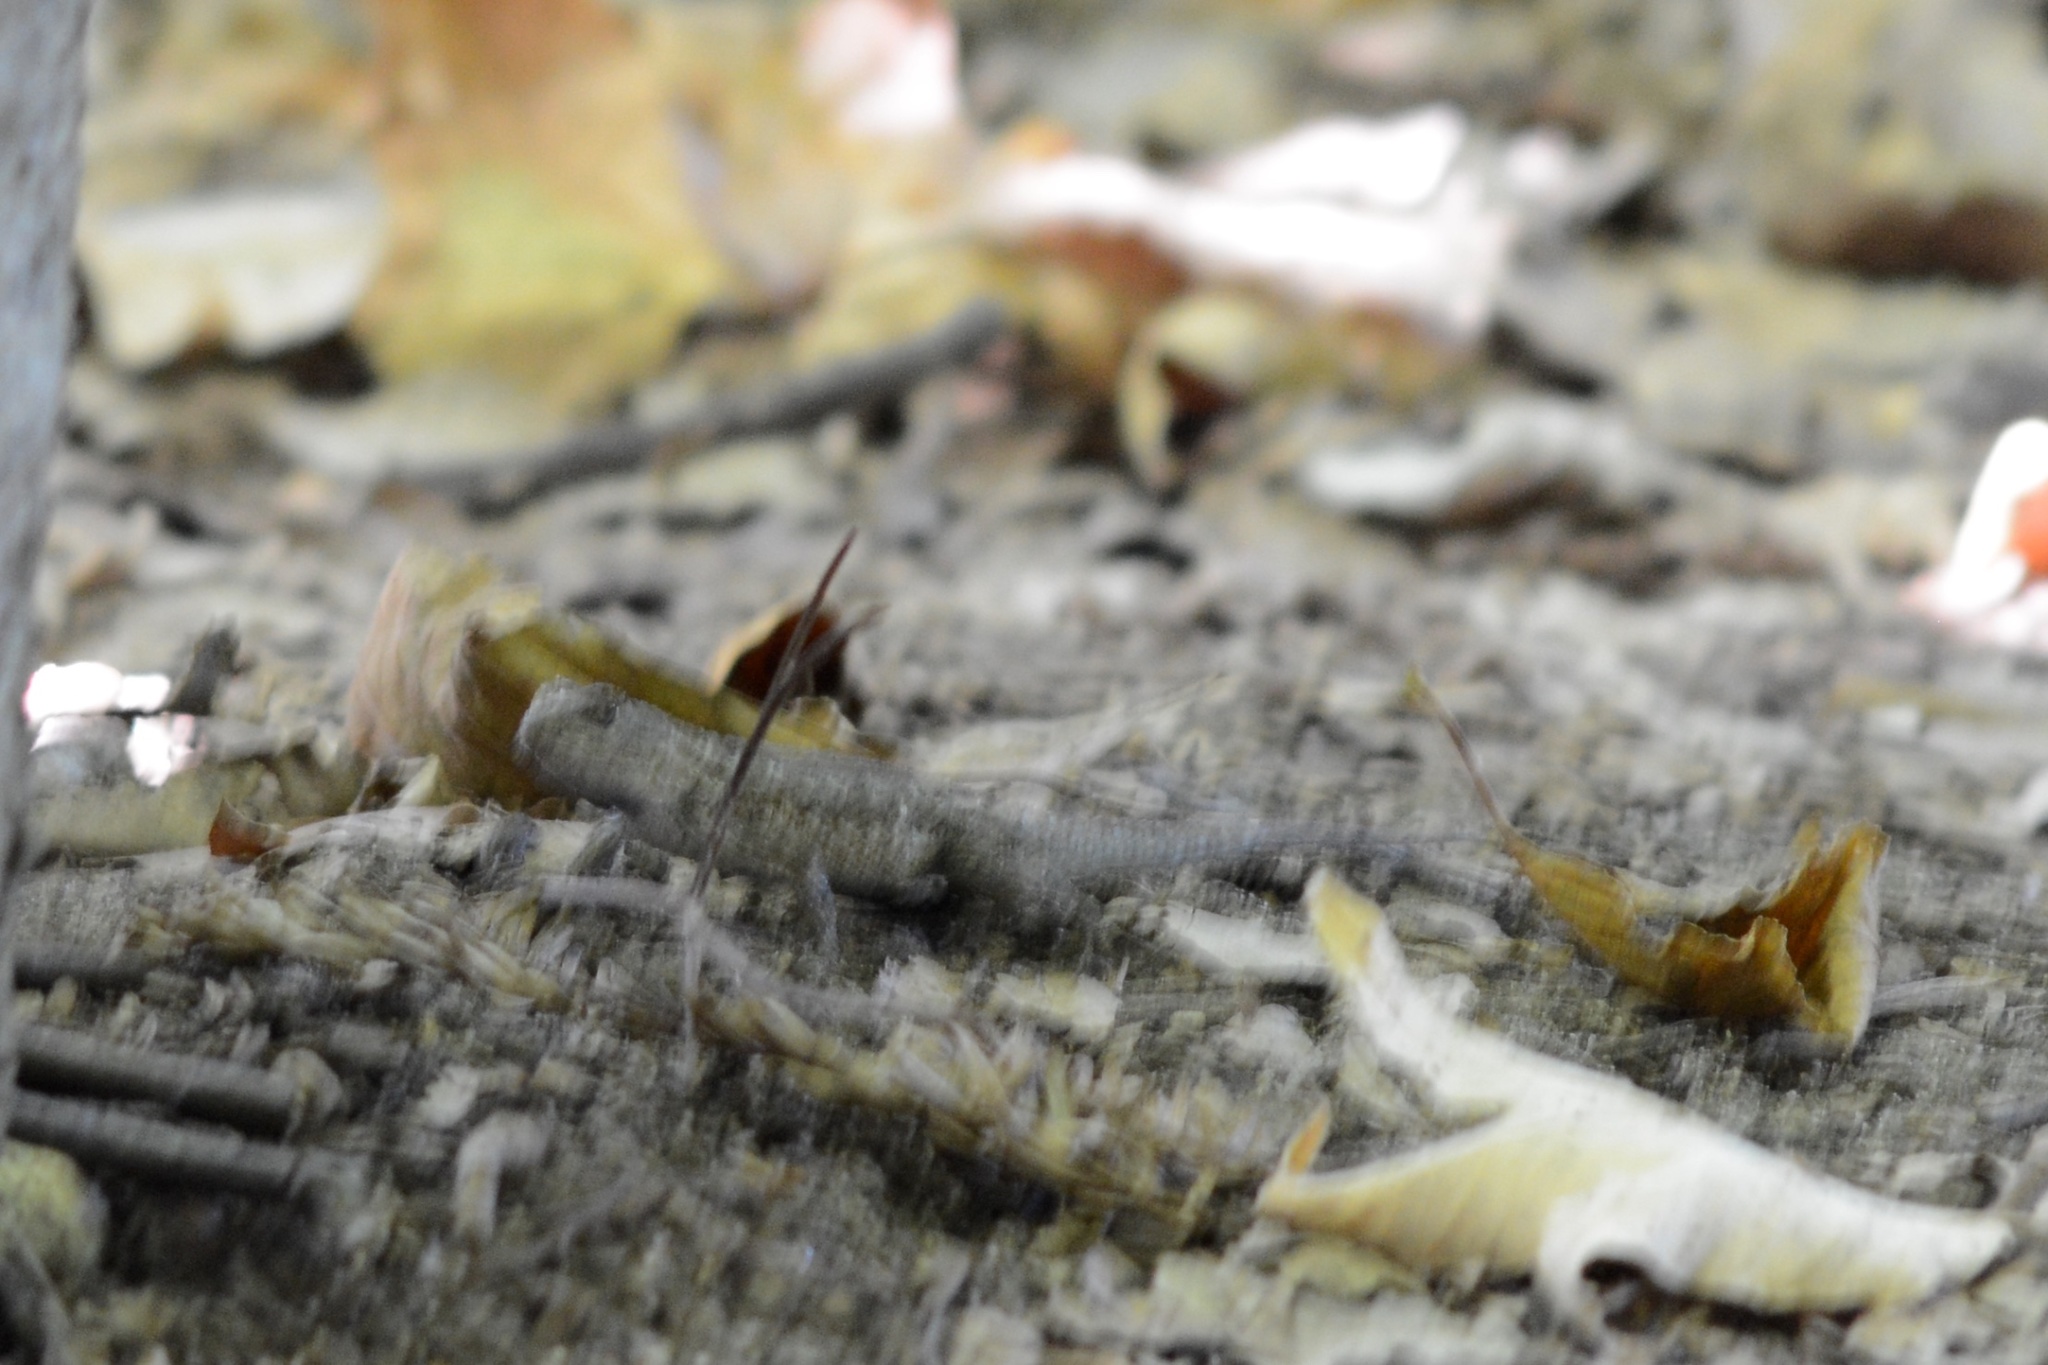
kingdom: Animalia
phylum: Chordata
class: Squamata
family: Phrynosomatidae
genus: Sceloporus
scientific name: Sceloporus occidentalis
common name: Western fence lizard
